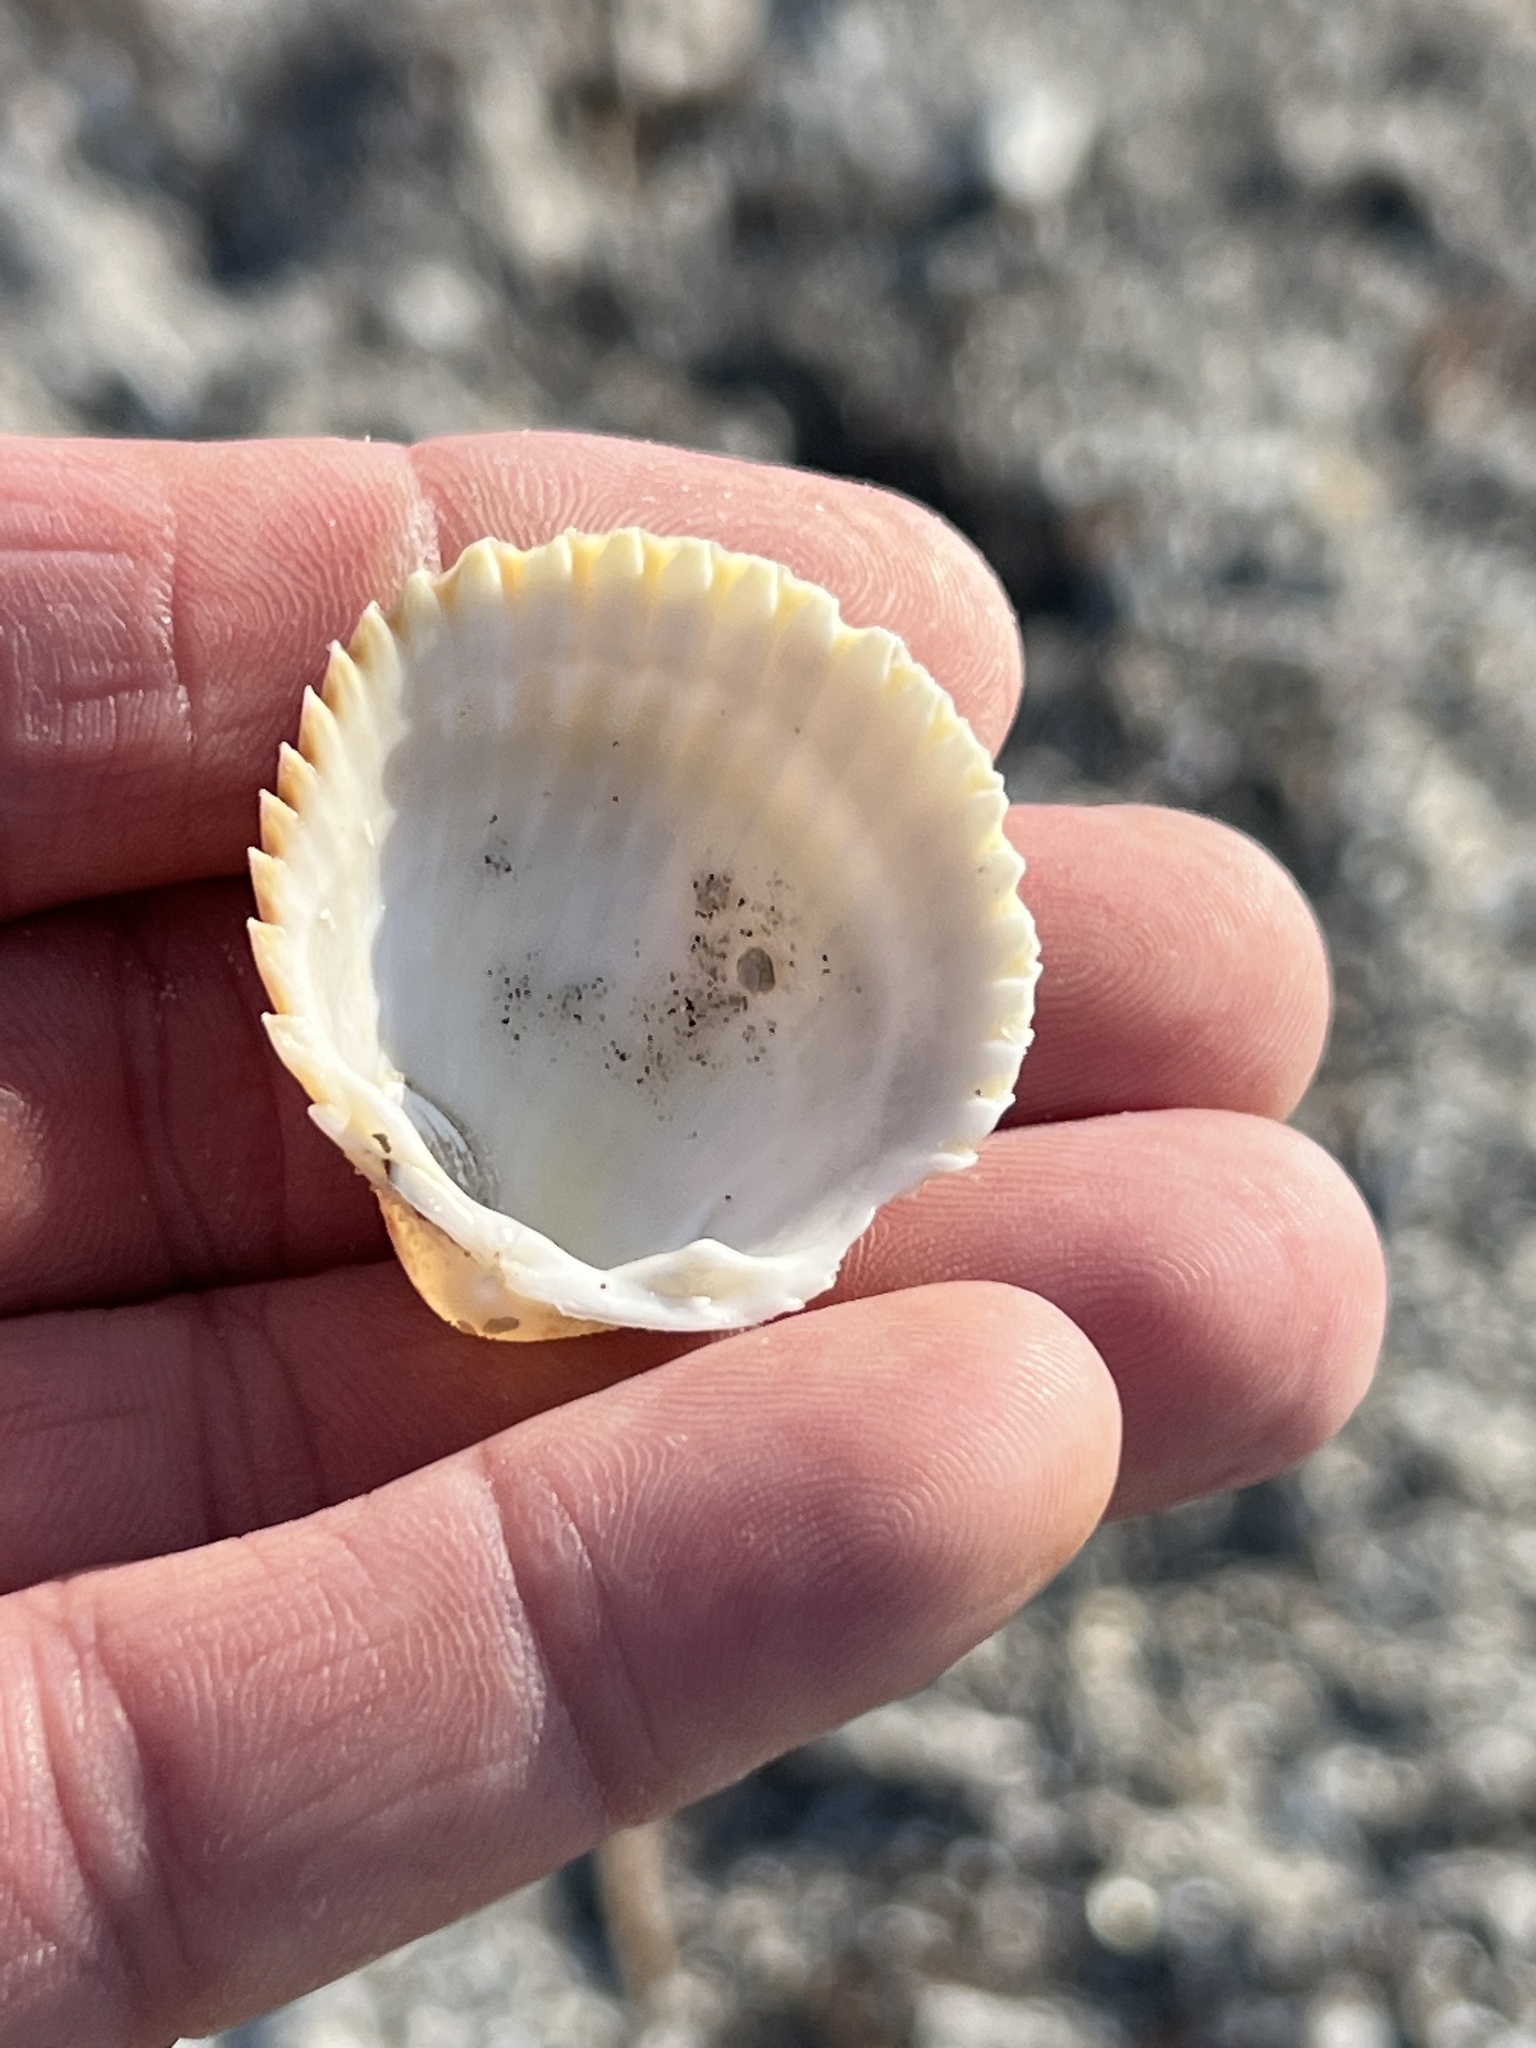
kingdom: Animalia
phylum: Mollusca
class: Bivalvia
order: Cardiida
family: Cardiidae
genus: Dallocardia
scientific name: Dallocardia muricata
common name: Yellow pricklycockle
